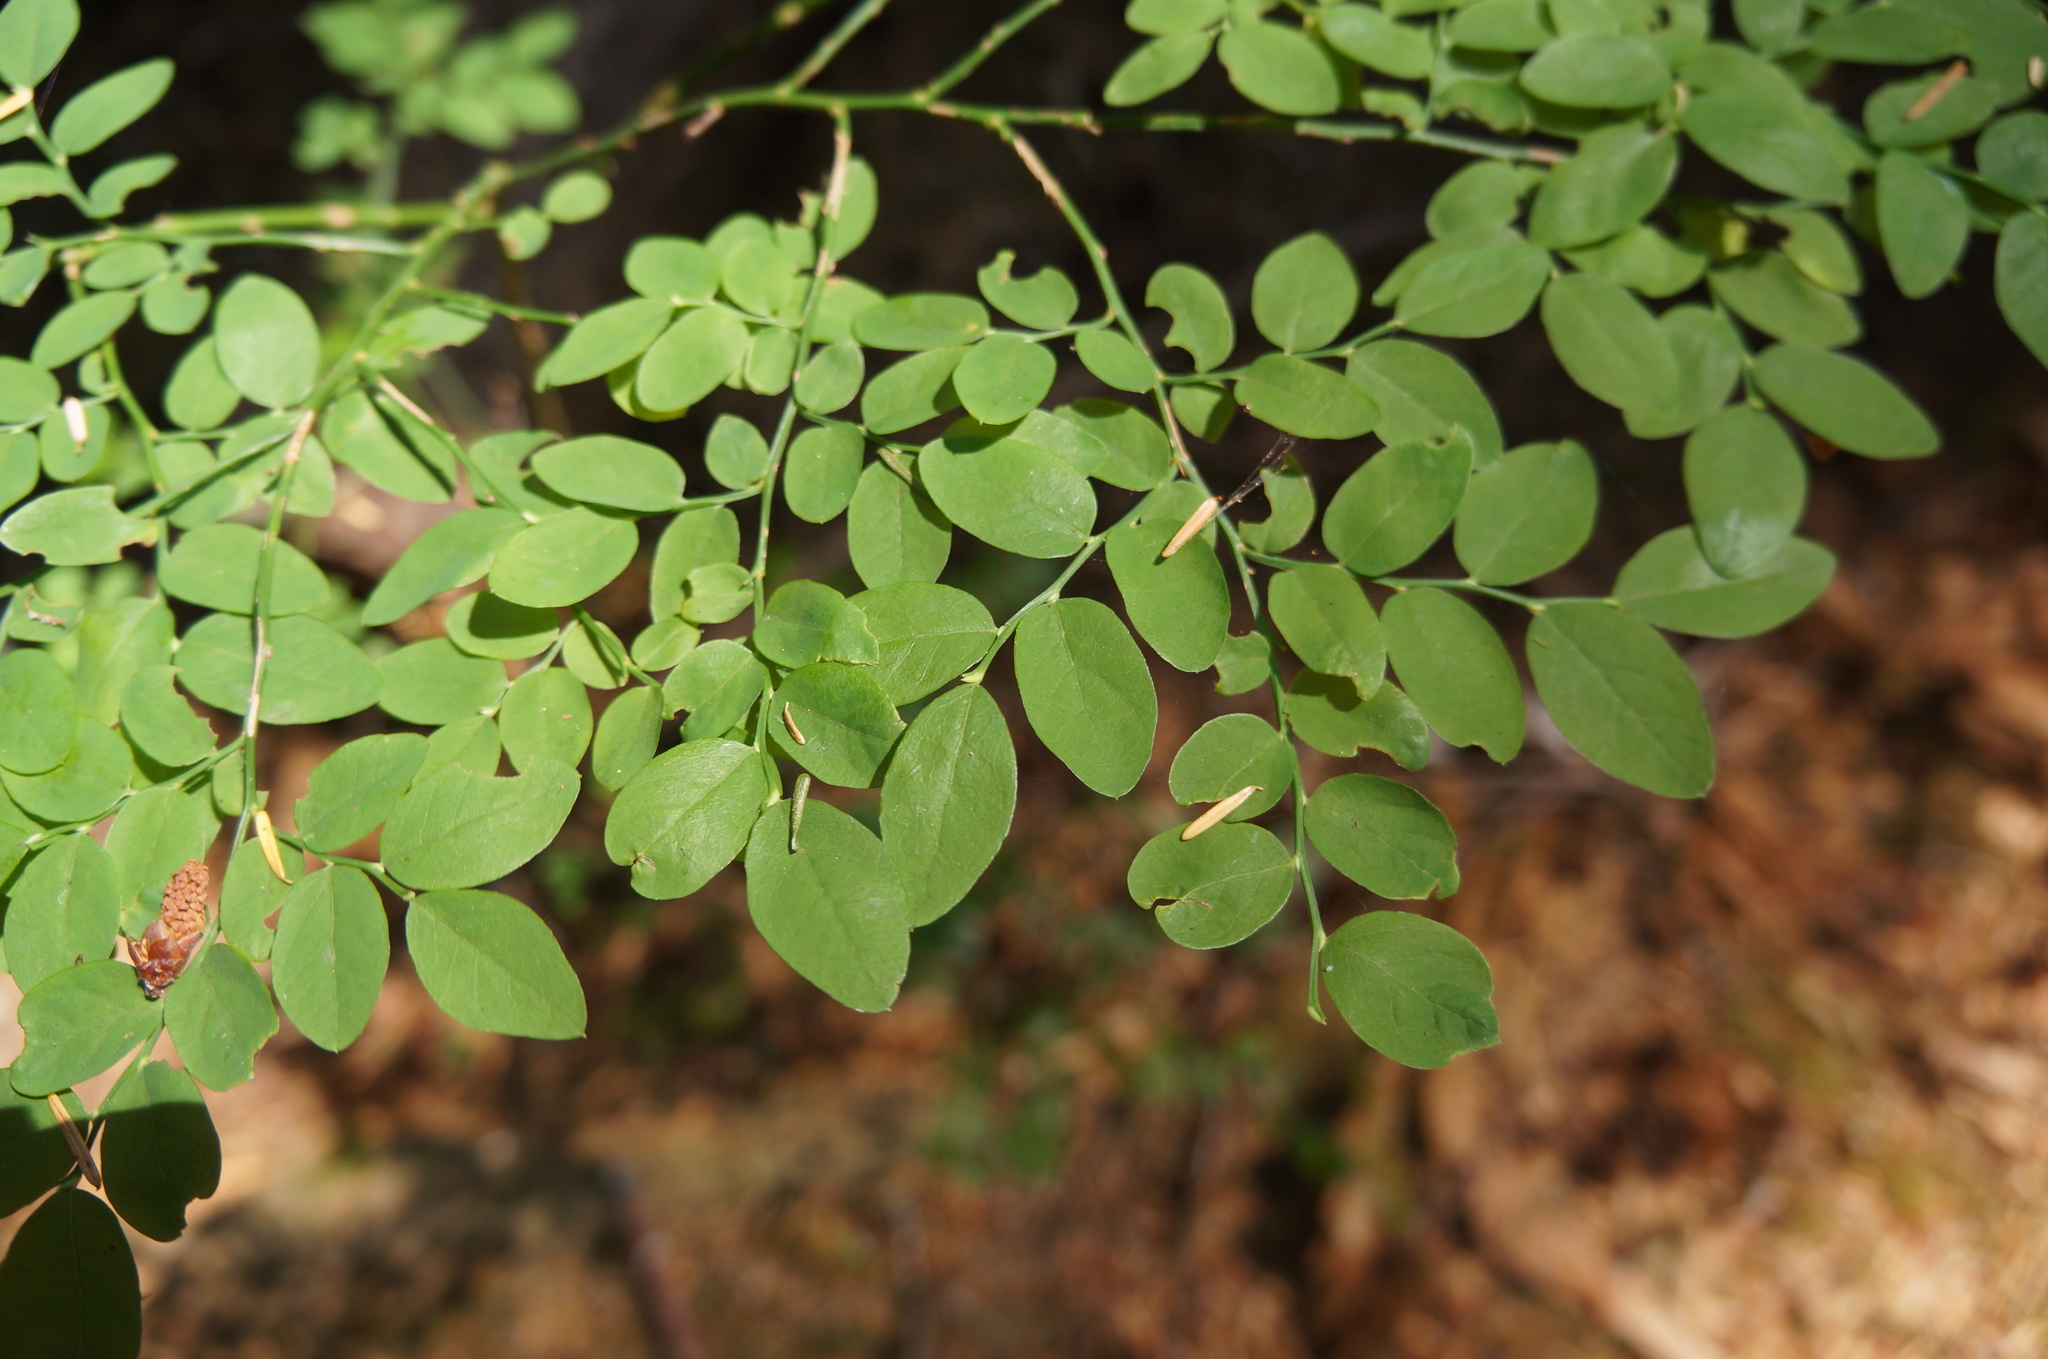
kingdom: Plantae
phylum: Tracheophyta
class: Magnoliopsida
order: Ericales
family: Ericaceae
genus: Vaccinium
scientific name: Vaccinium parvifolium
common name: Red-huckleberry
